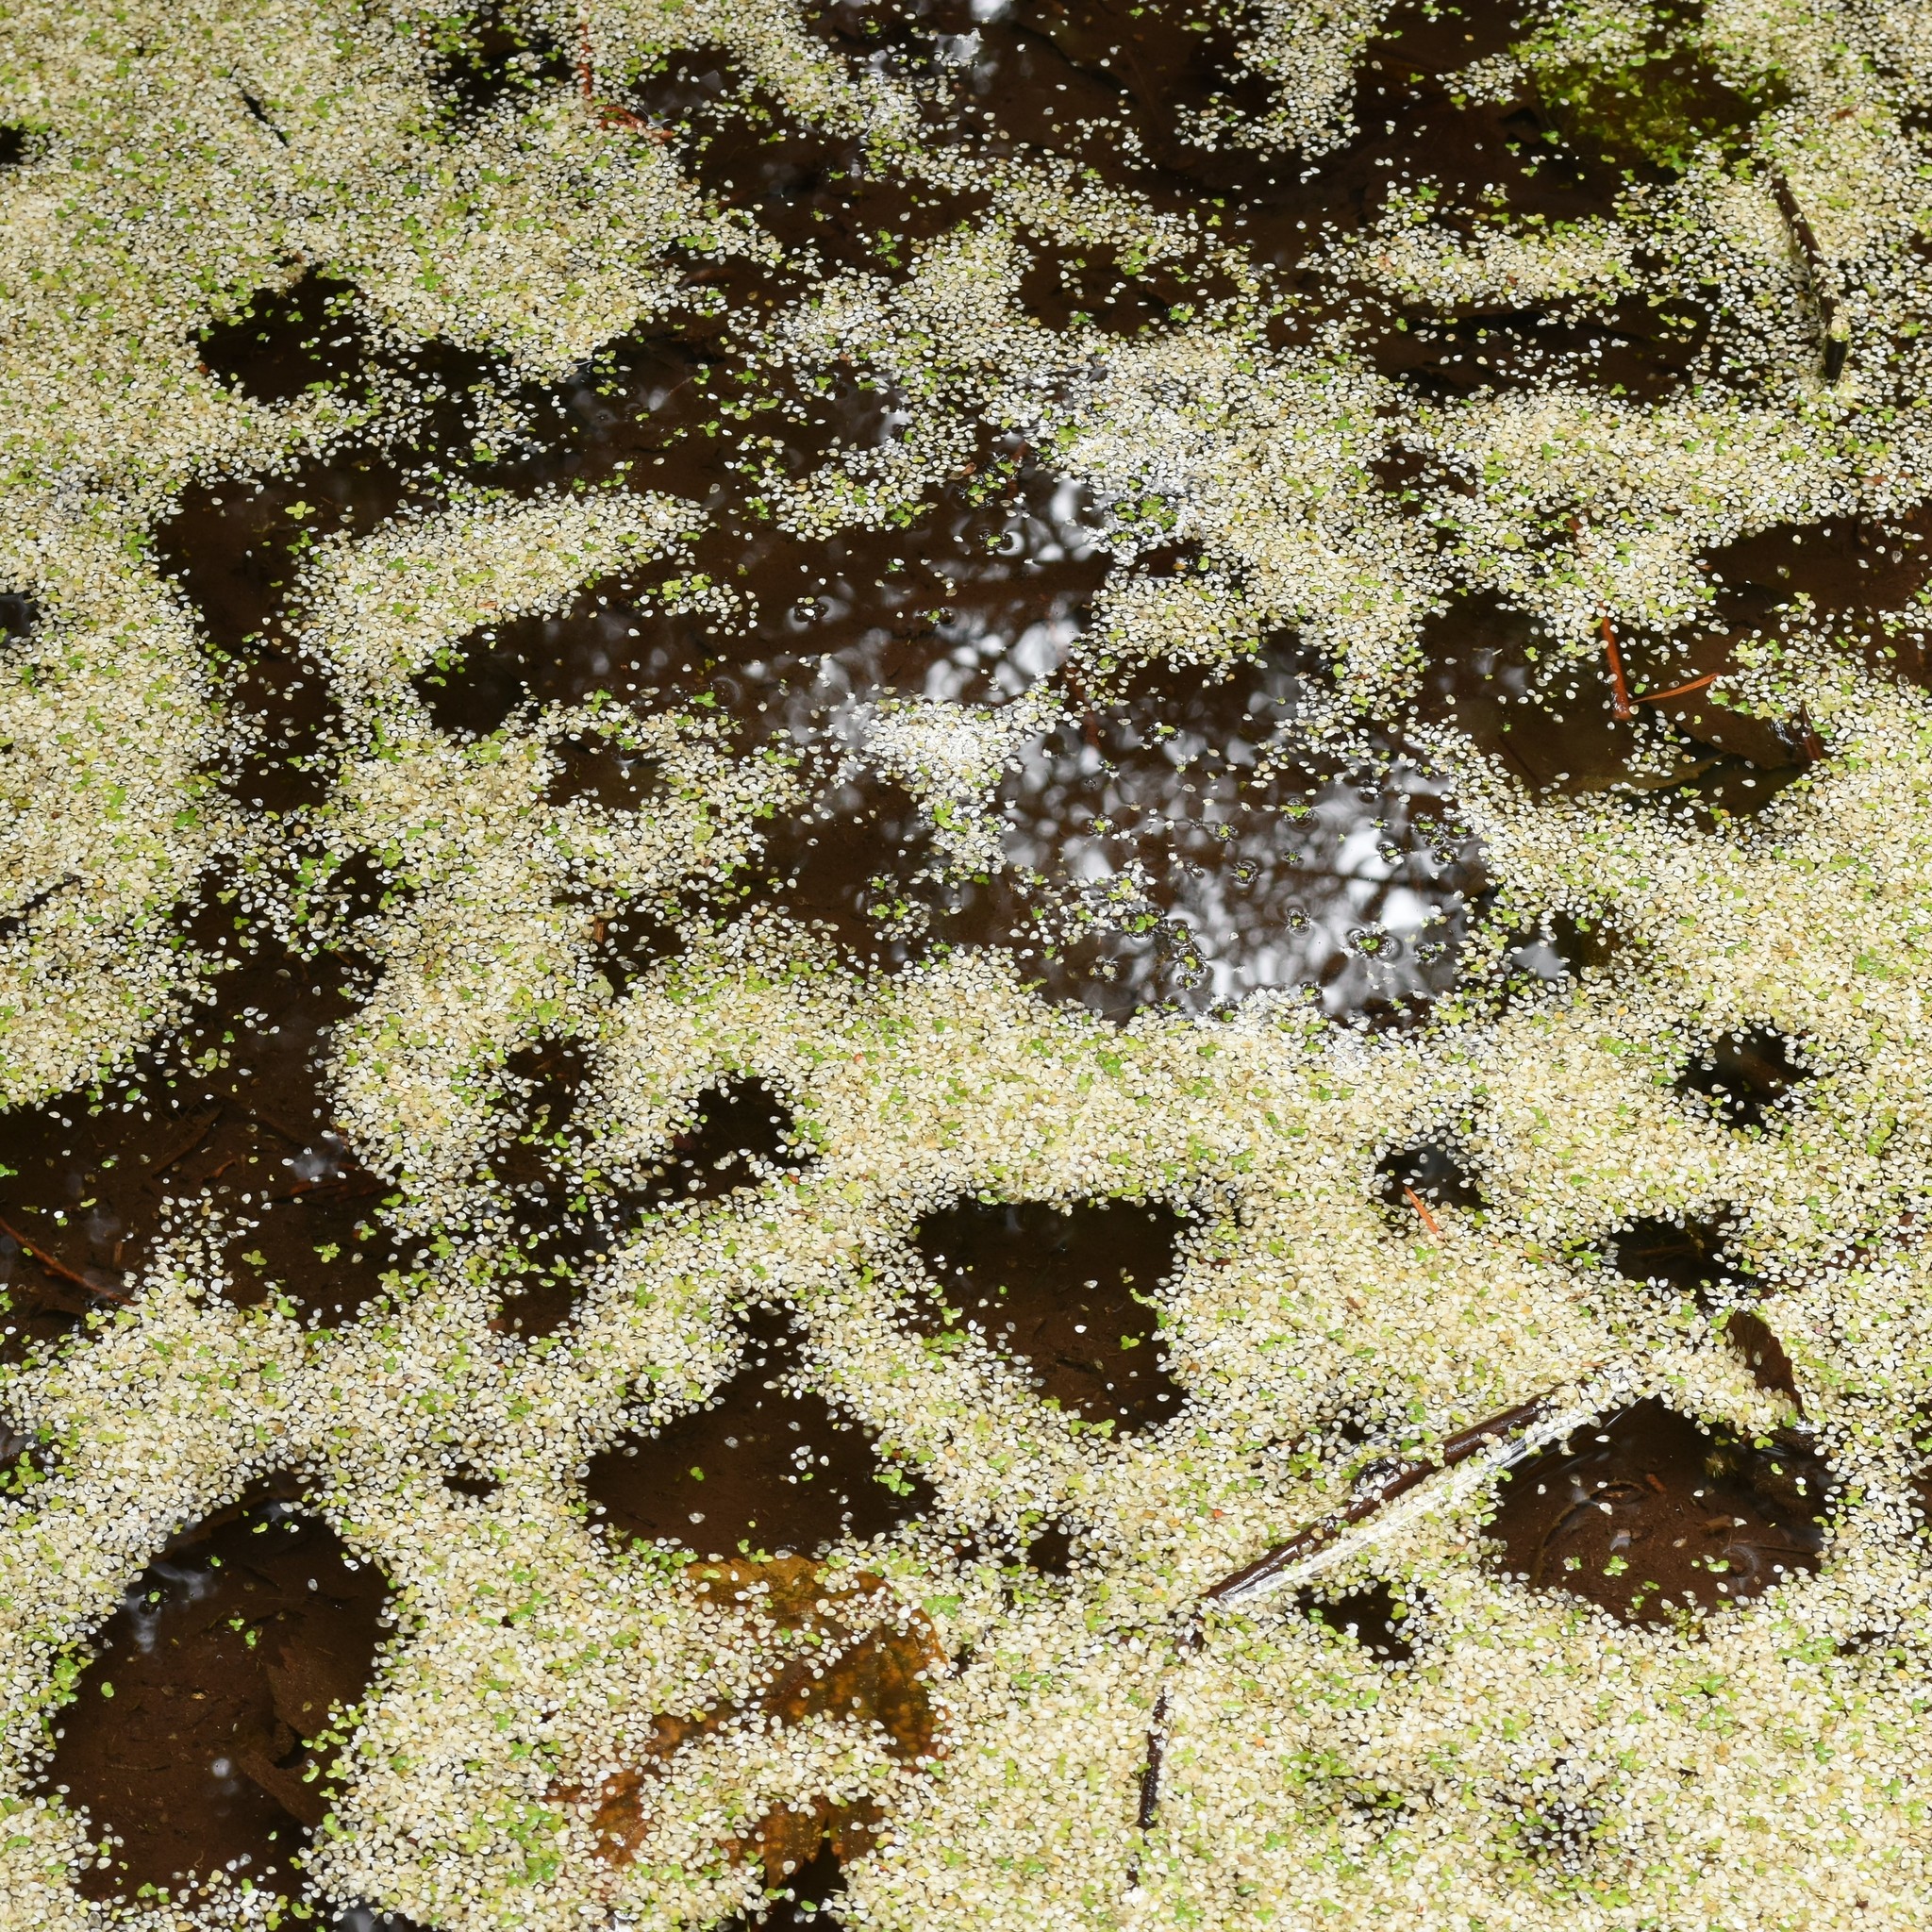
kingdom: Plantae
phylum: Tracheophyta
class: Liliopsida
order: Alismatales
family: Araceae
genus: Lemna
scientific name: Lemna minor
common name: Common duckweed
